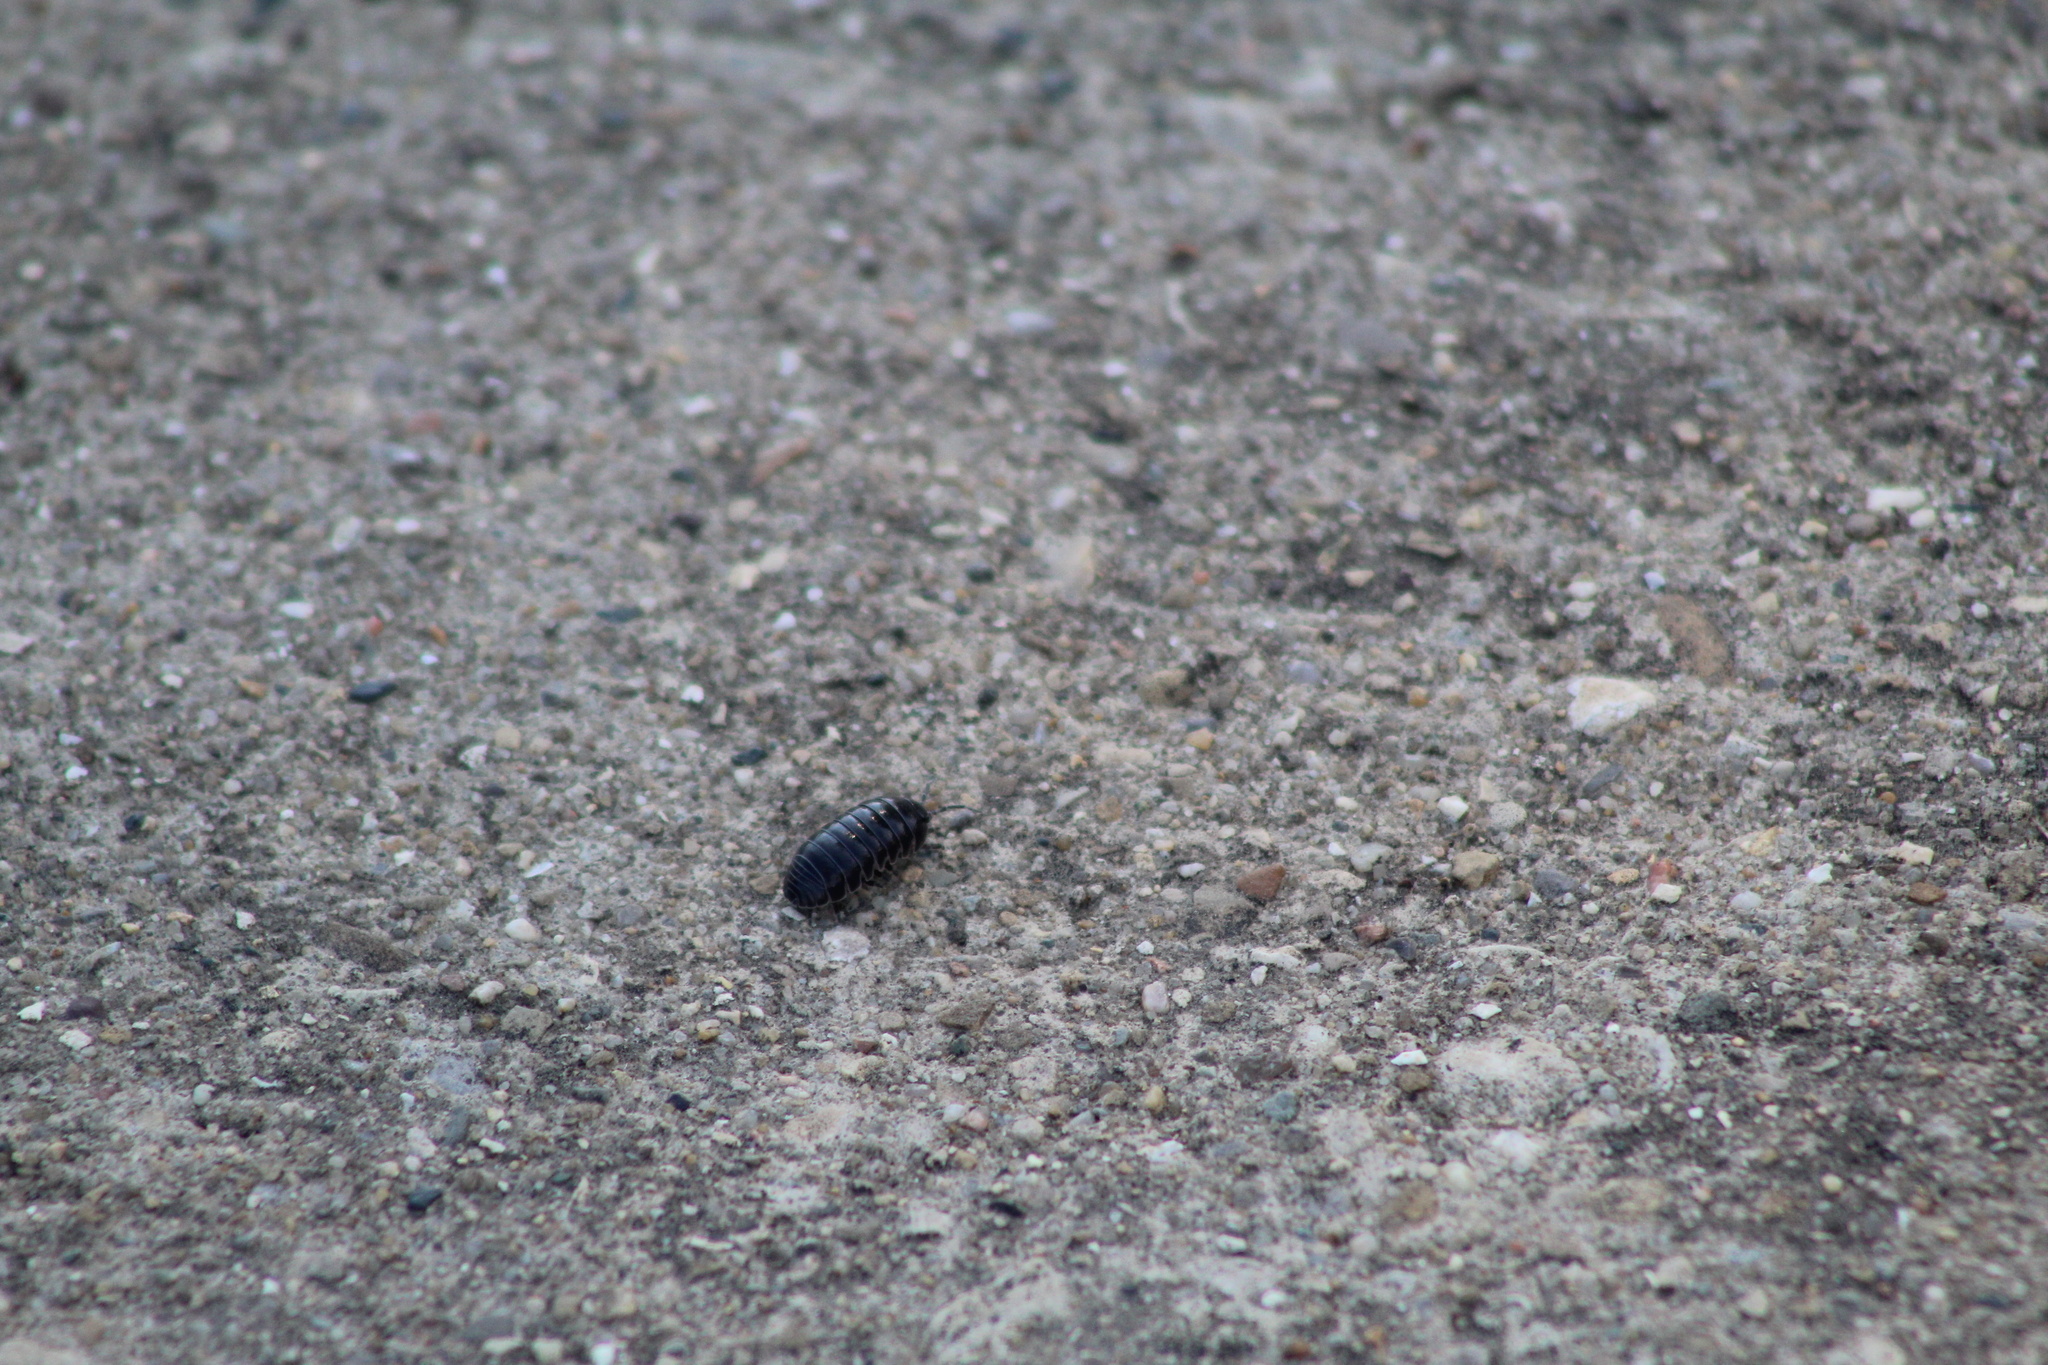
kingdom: Animalia
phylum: Arthropoda
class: Malacostraca
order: Isopoda
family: Armadillidiidae
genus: Armadillidium
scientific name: Armadillidium vulgare
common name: Common pill woodlouse
